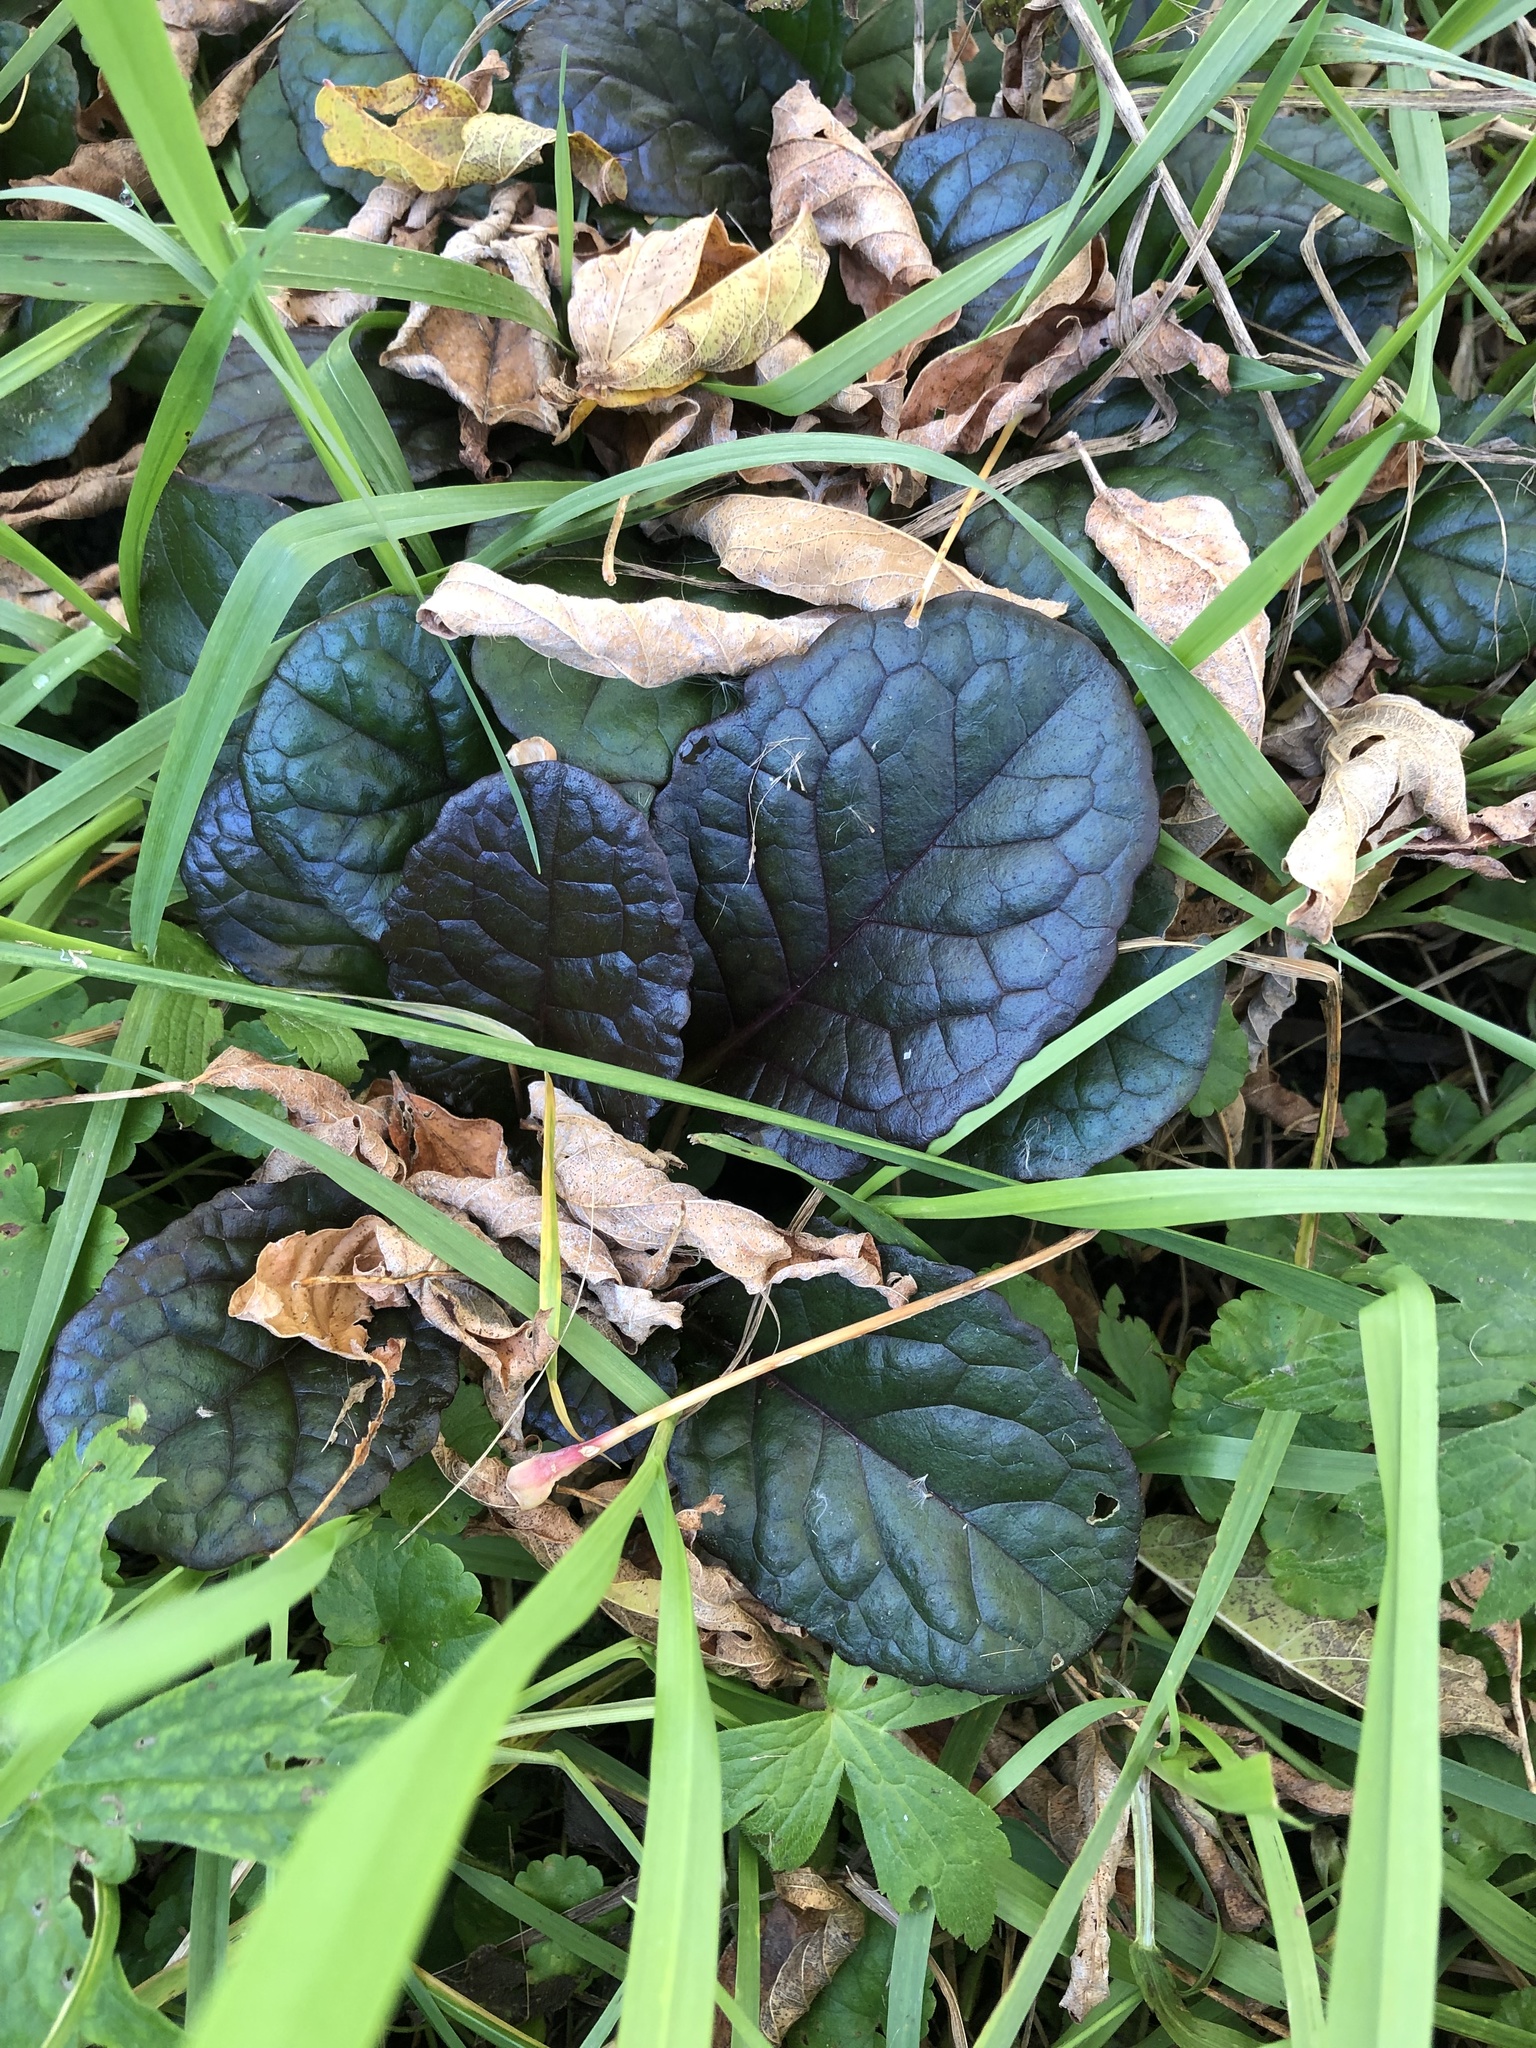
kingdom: Plantae
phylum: Tracheophyta
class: Magnoliopsida
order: Lamiales
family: Lamiaceae
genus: Ajuga
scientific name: Ajuga reptans
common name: Bugle
